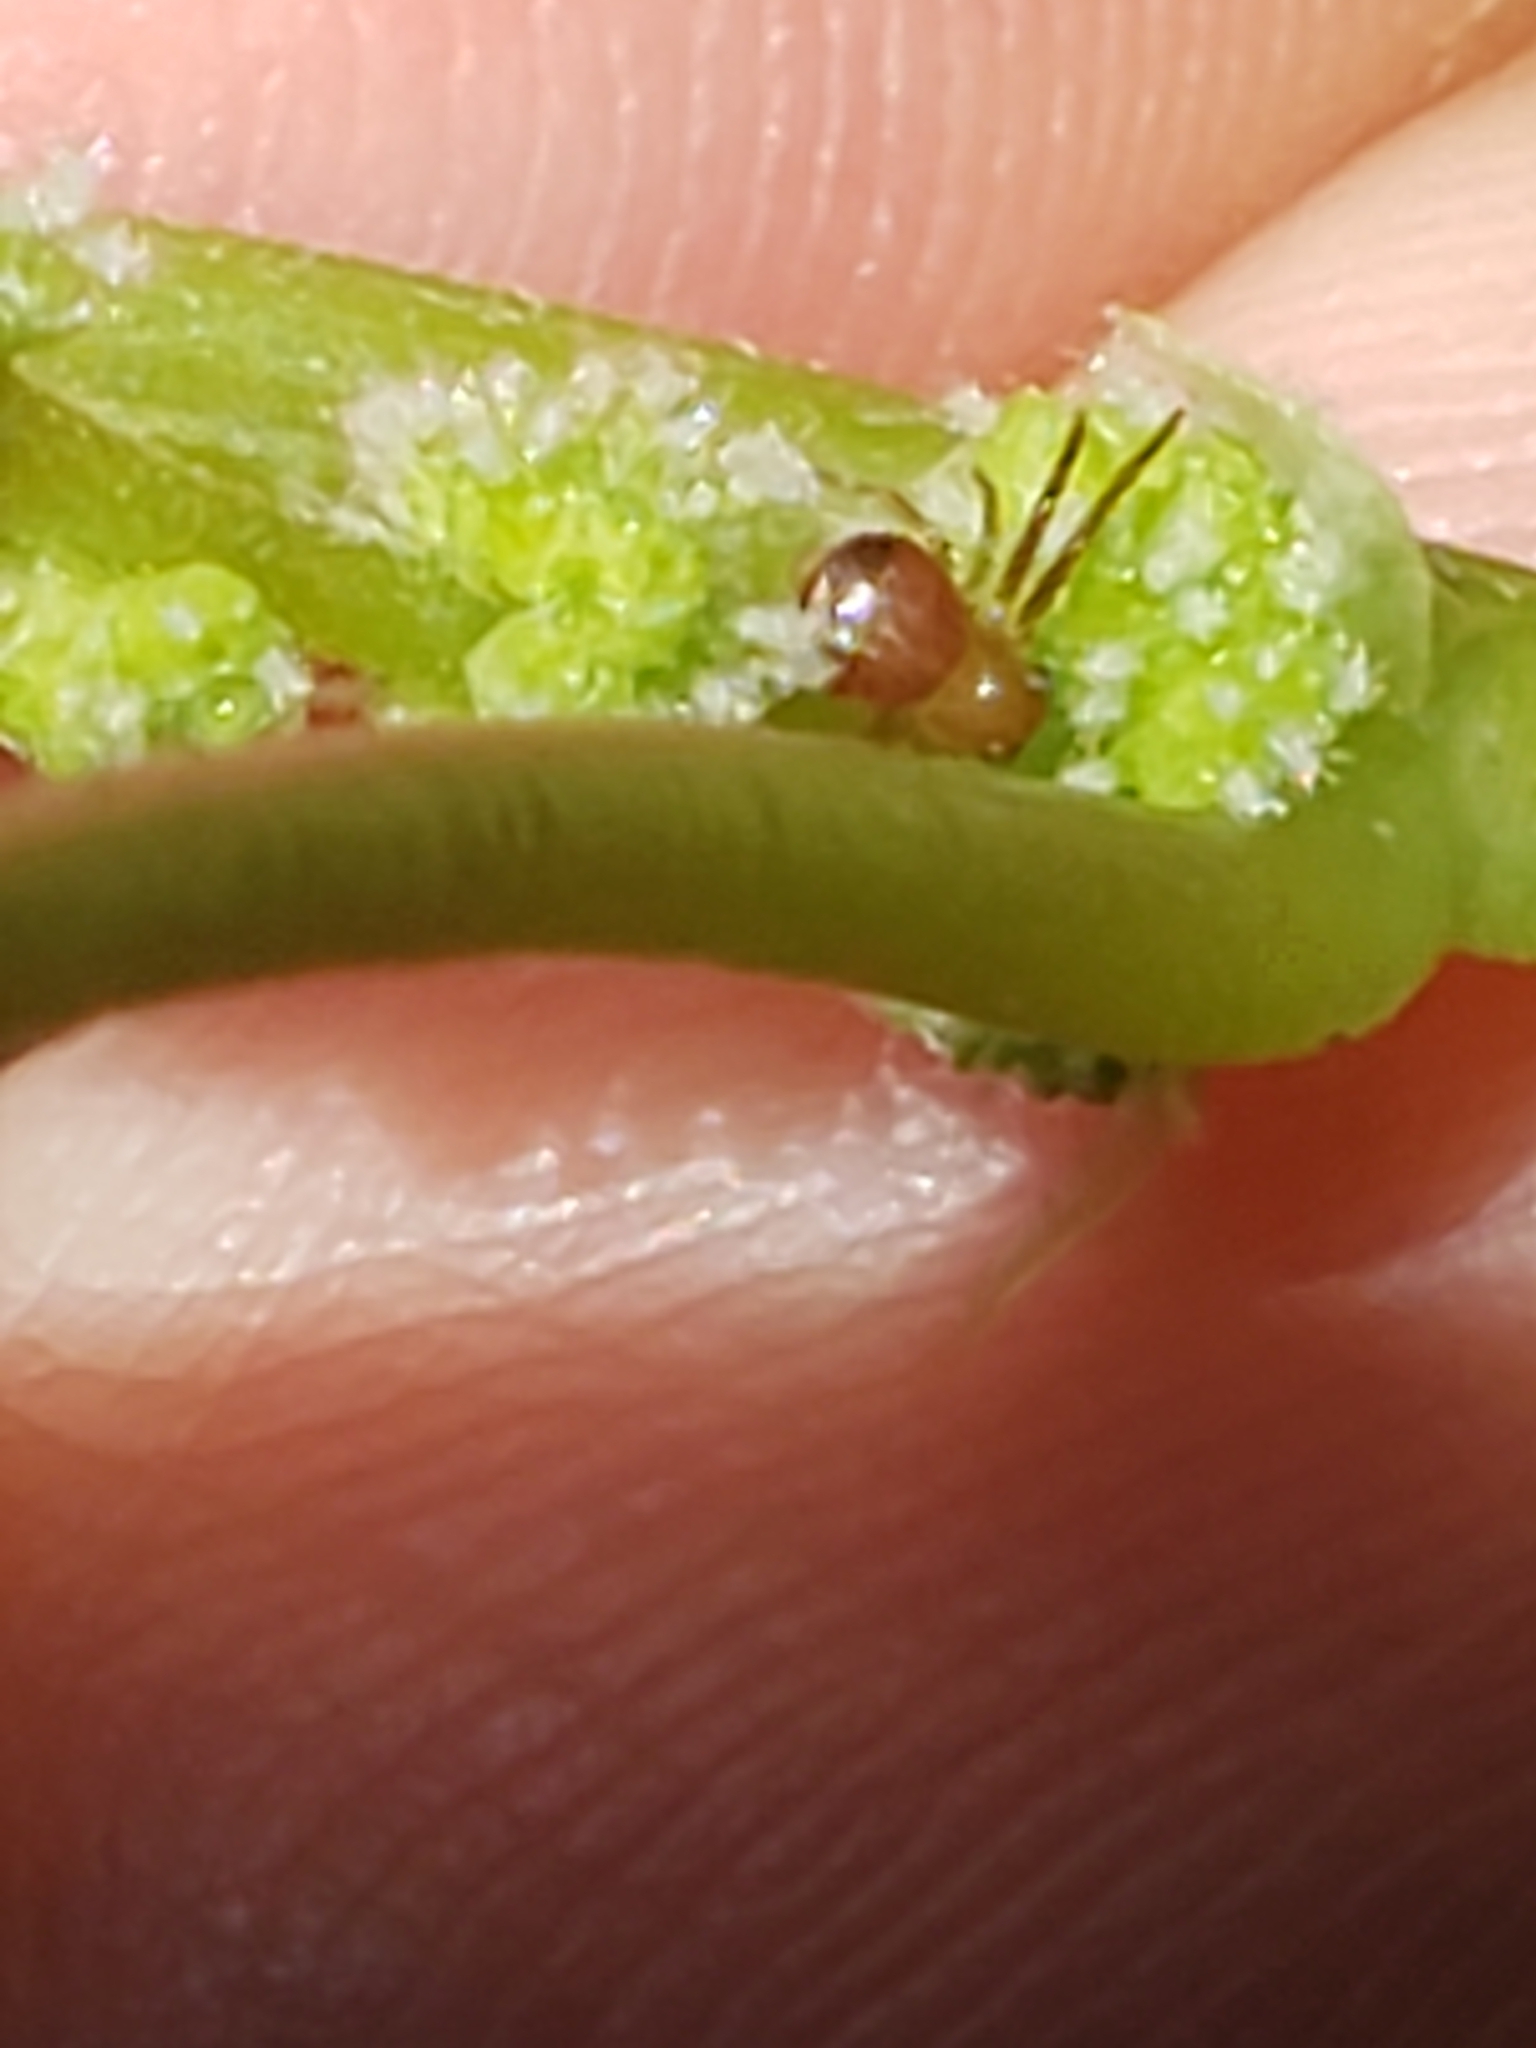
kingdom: Animalia
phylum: Arthropoda
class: Arachnida
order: Araneae
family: Thomisidae
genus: Synema
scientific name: Synema parvulum
